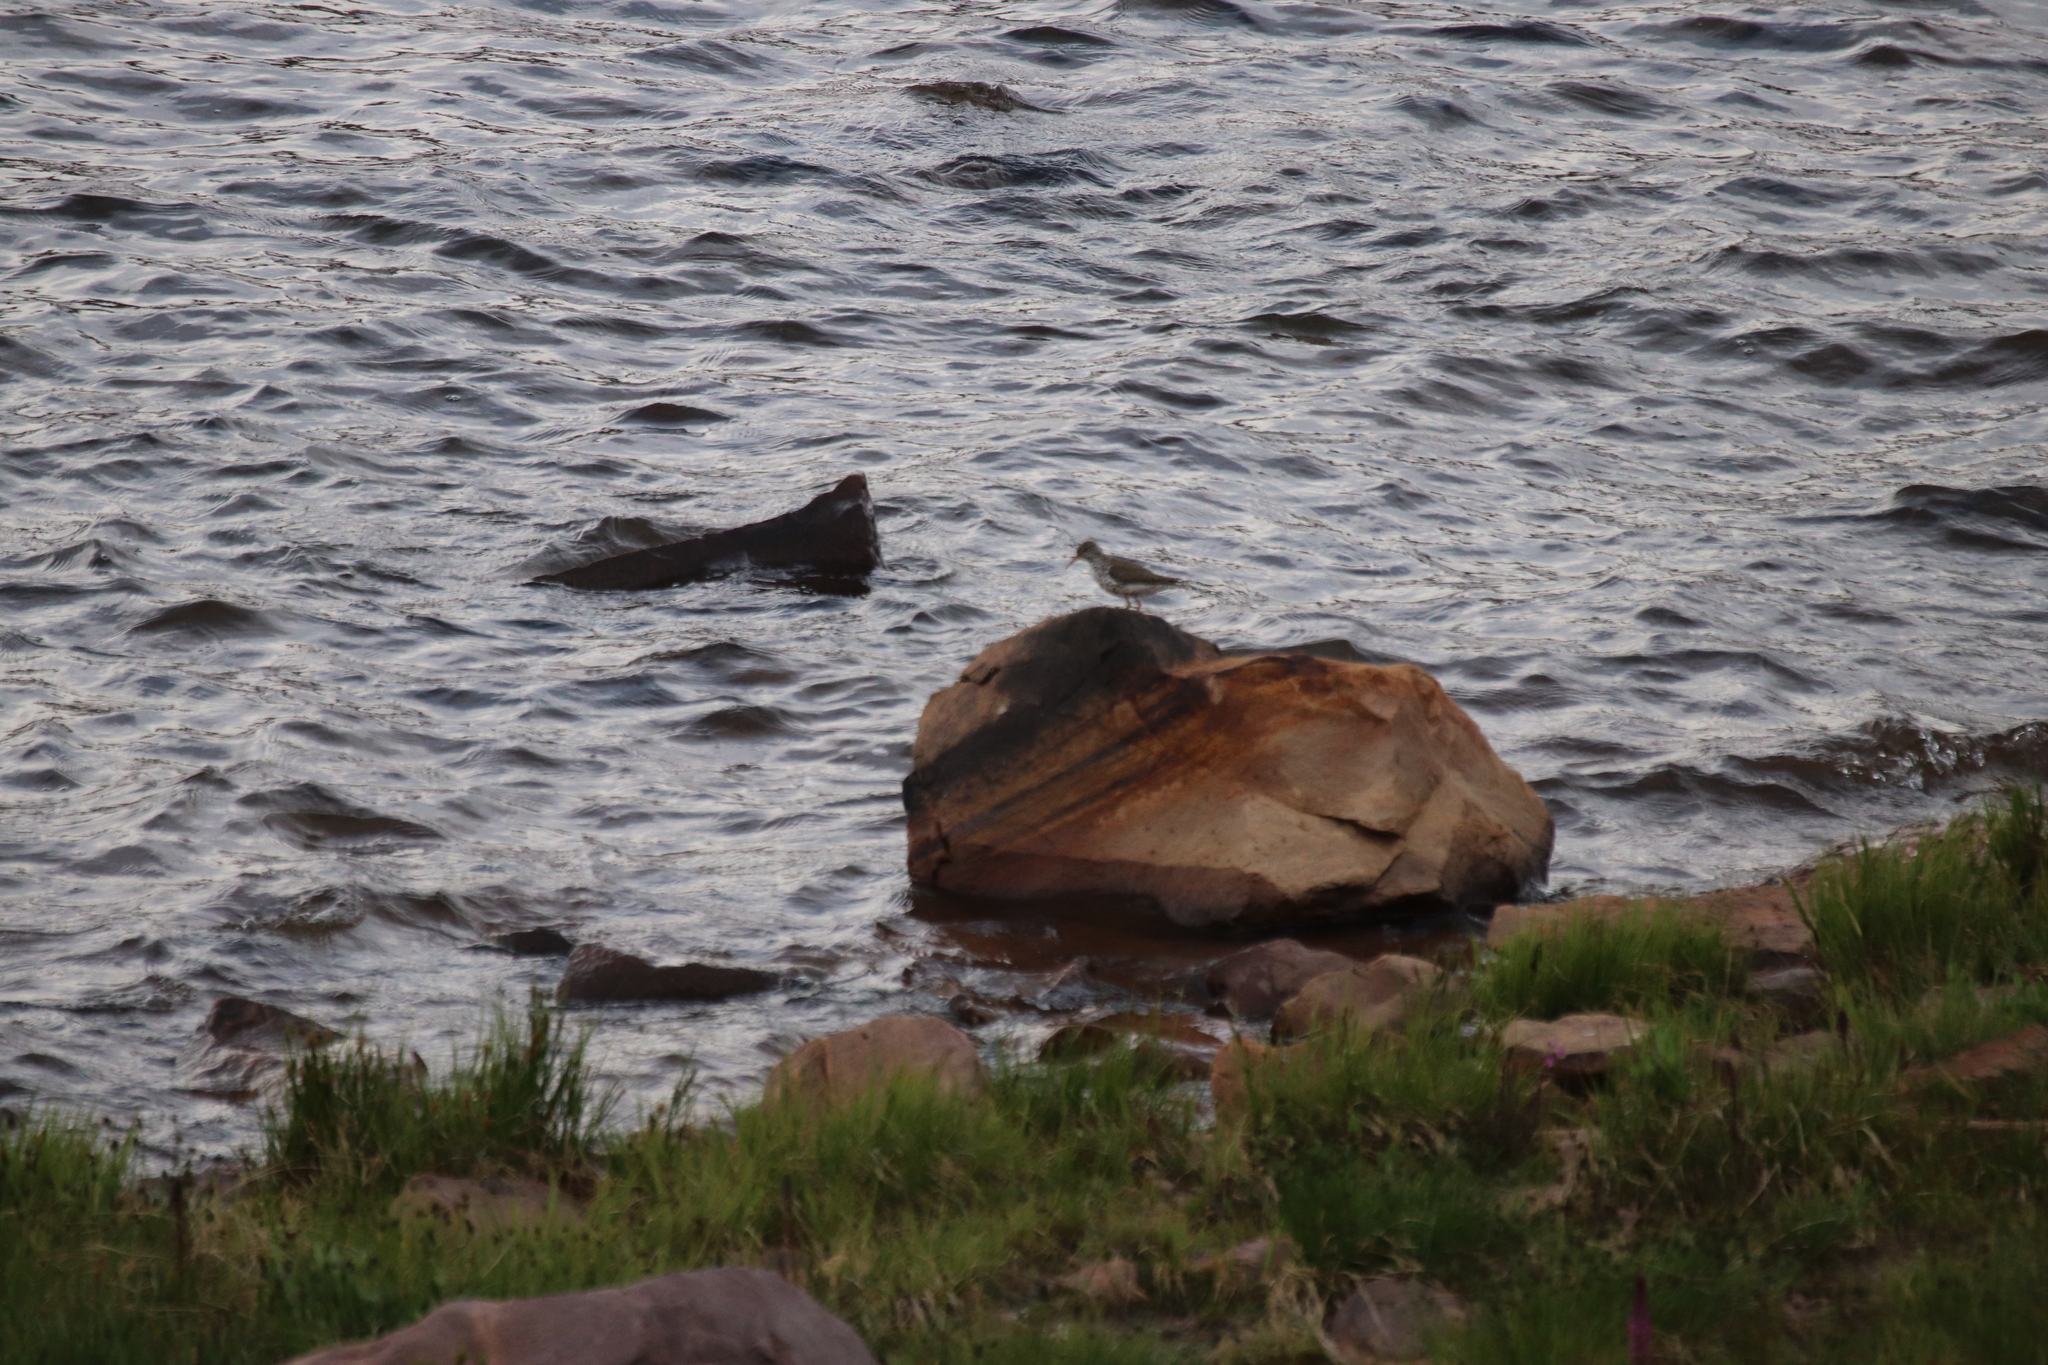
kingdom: Animalia
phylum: Chordata
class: Aves
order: Charadriiformes
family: Scolopacidae
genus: Actitis
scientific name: Actitis macularius
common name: Spotted sandpiper
